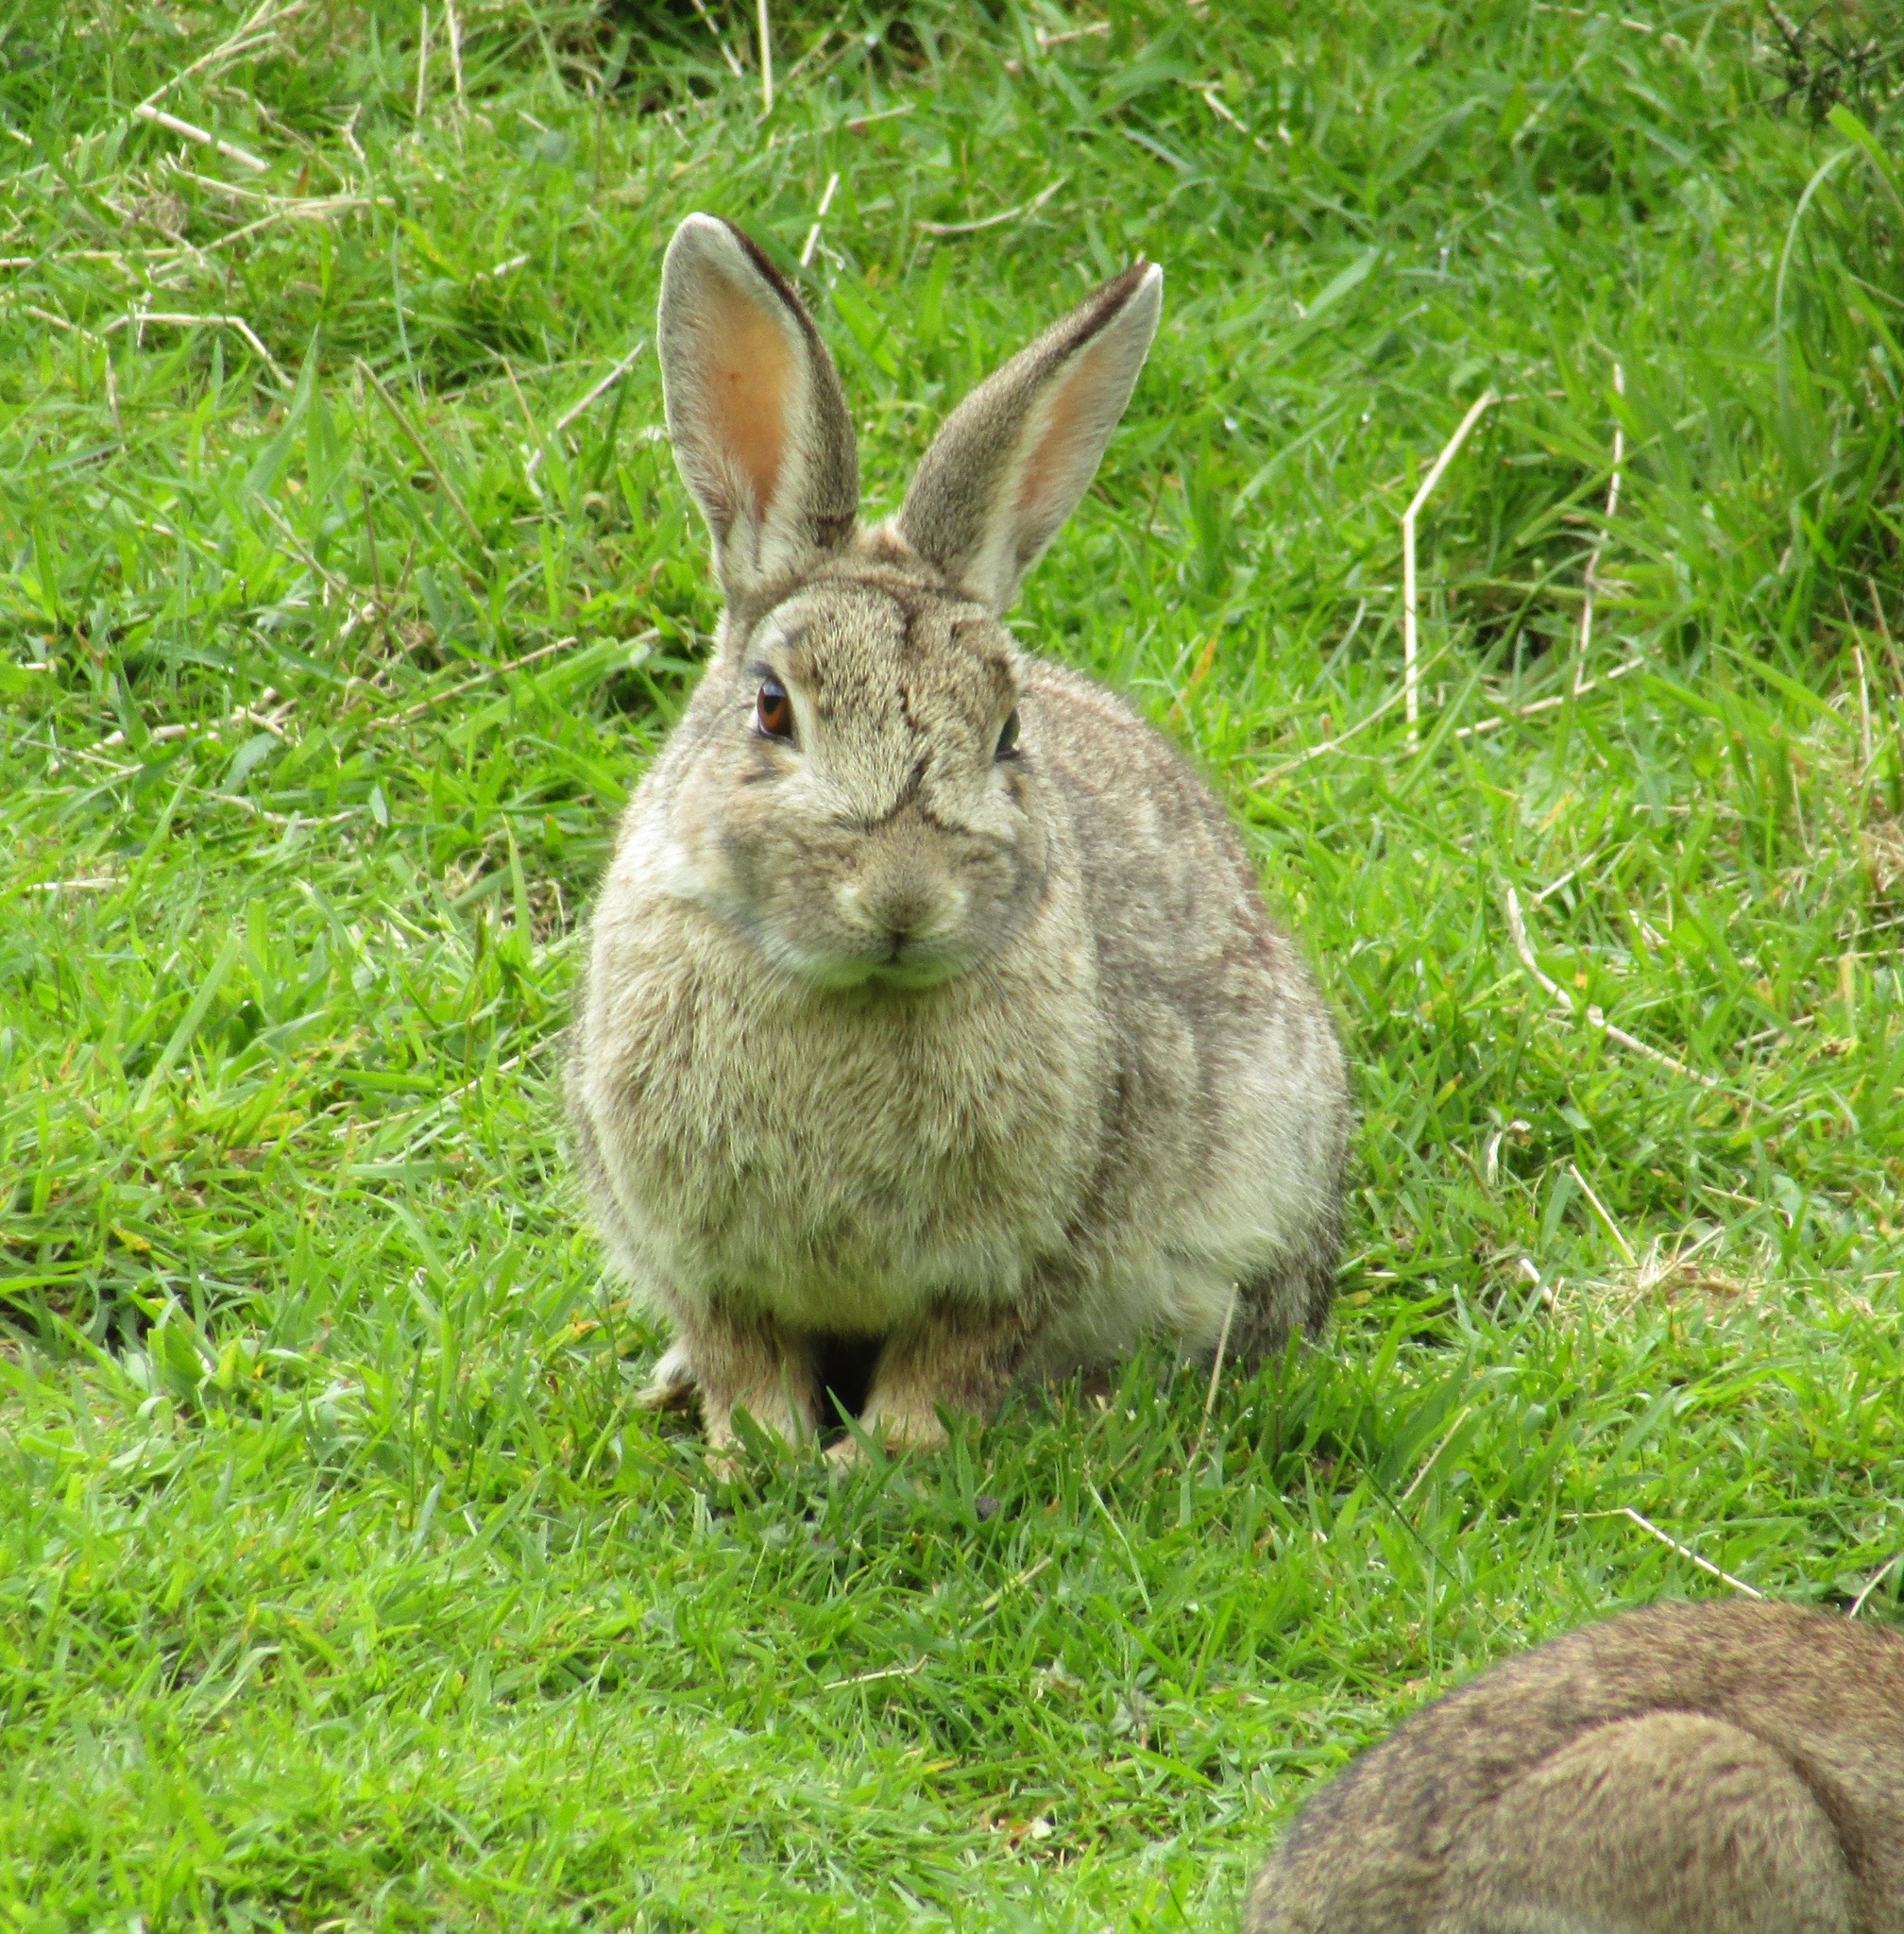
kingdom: Animalia
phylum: Chordata
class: Mammalia
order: Lagomorpha
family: Leporidae
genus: Oryctolagus
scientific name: Oryctolagus cuniculus
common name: European rabbit
